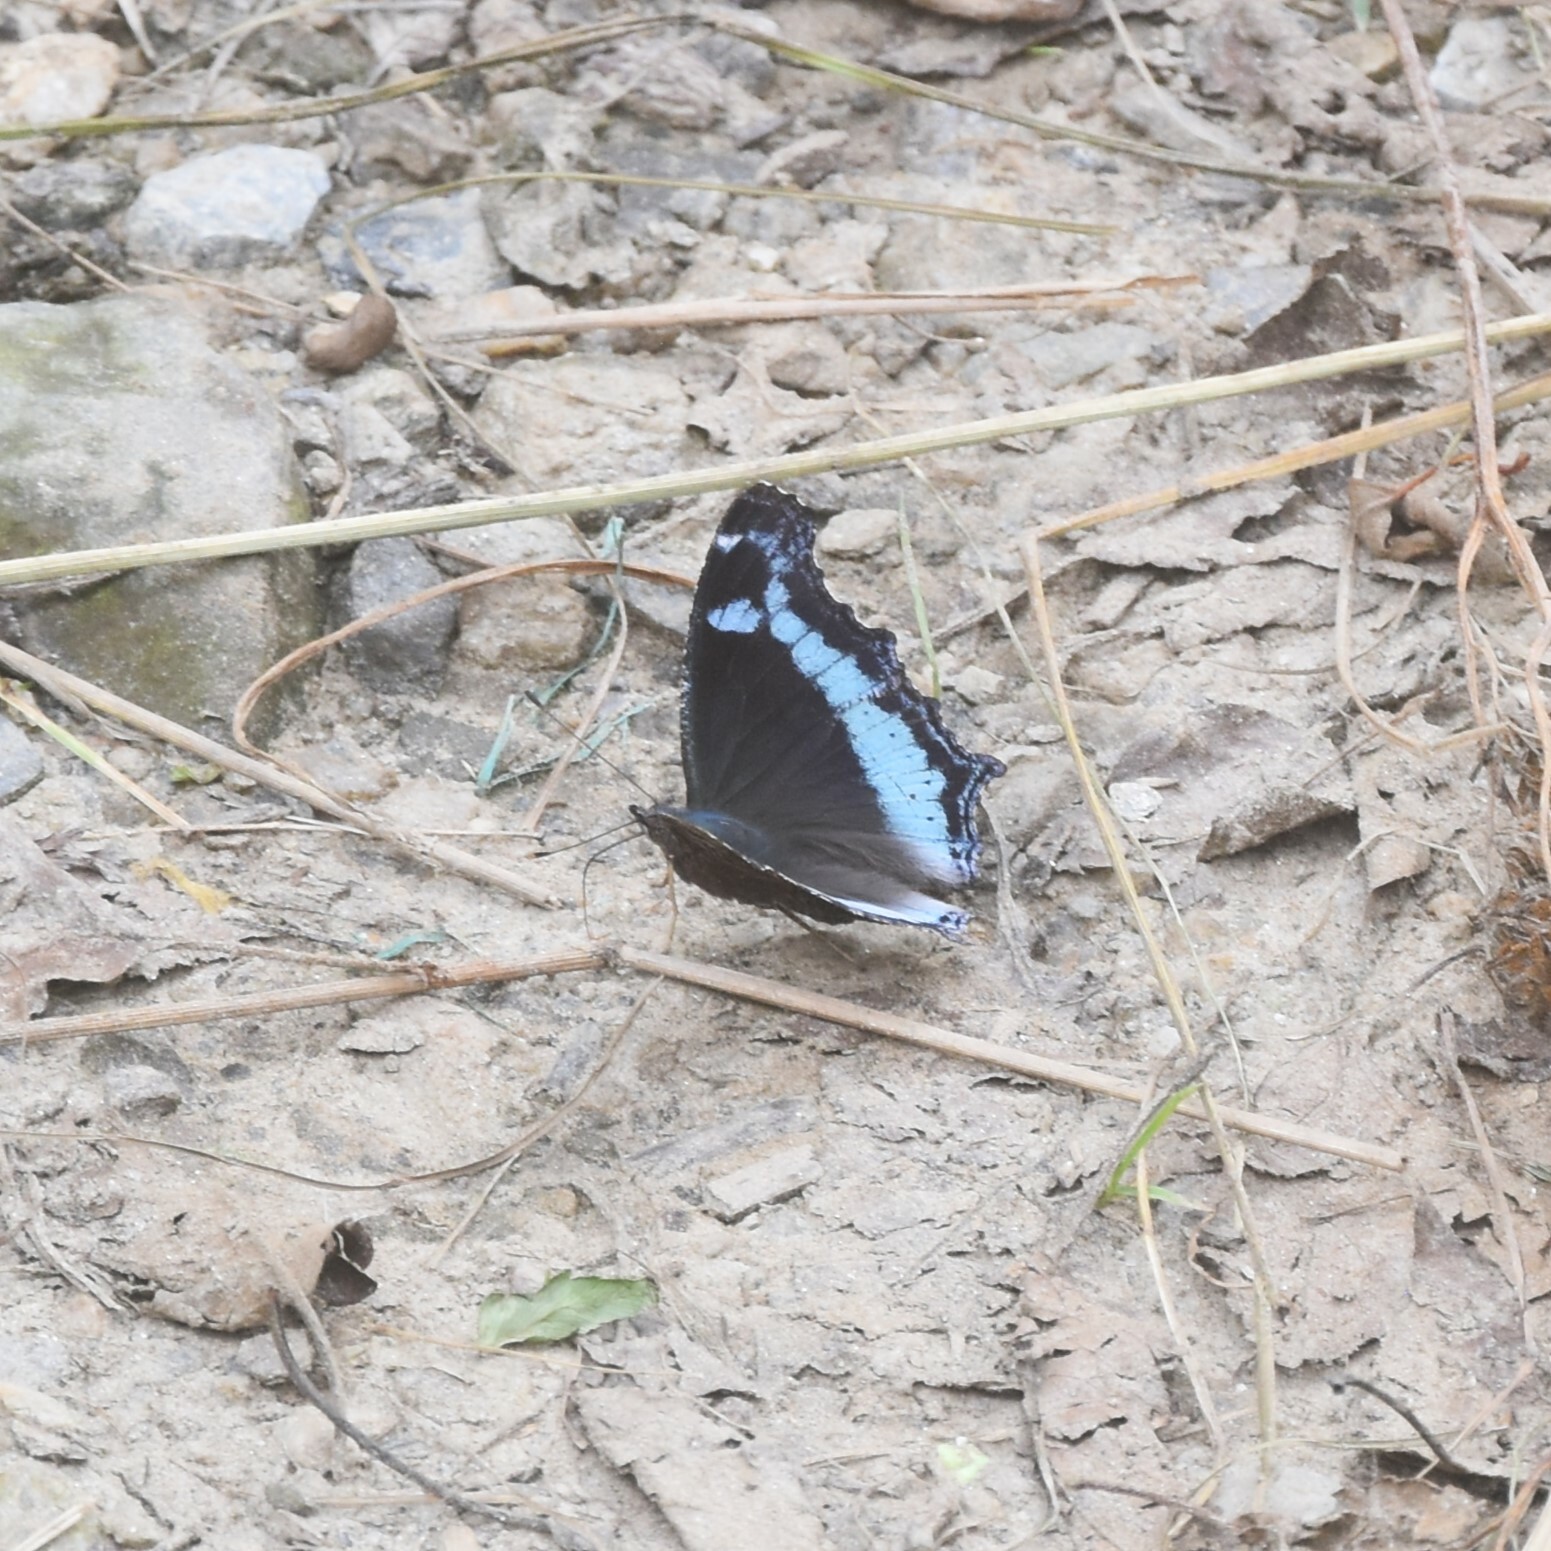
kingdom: Animalia
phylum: Arthropoda
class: Insecta
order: Lepidoptera
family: Nymphalidae
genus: Vanessa
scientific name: Vanessa Kaniska canace
